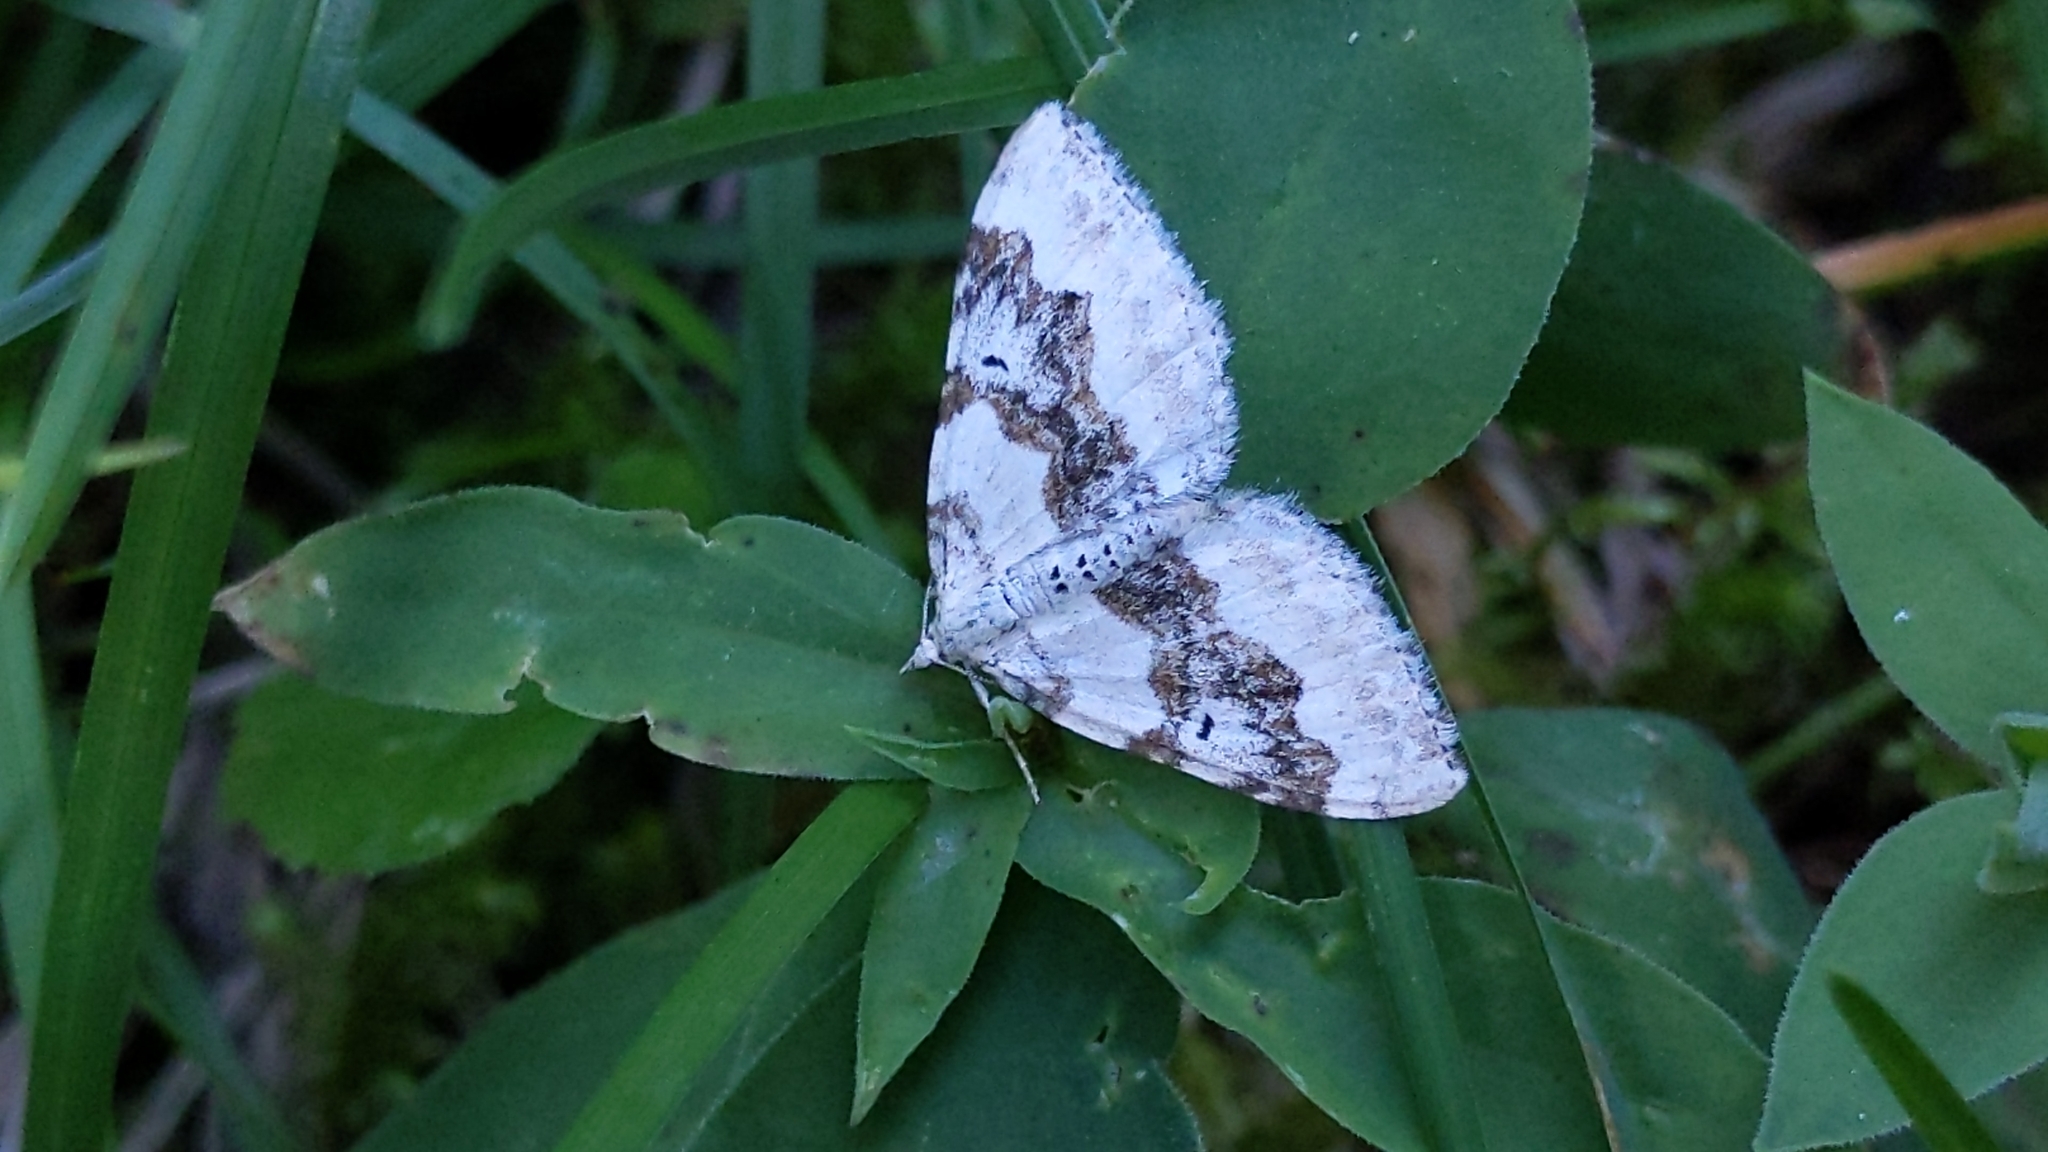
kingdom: Animalia
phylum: Arthropoda
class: Insecta
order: Lepidoptera
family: Geometridae
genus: Xanthorhoe
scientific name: Xanthorhoe montanata
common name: Silver-ground carpet
